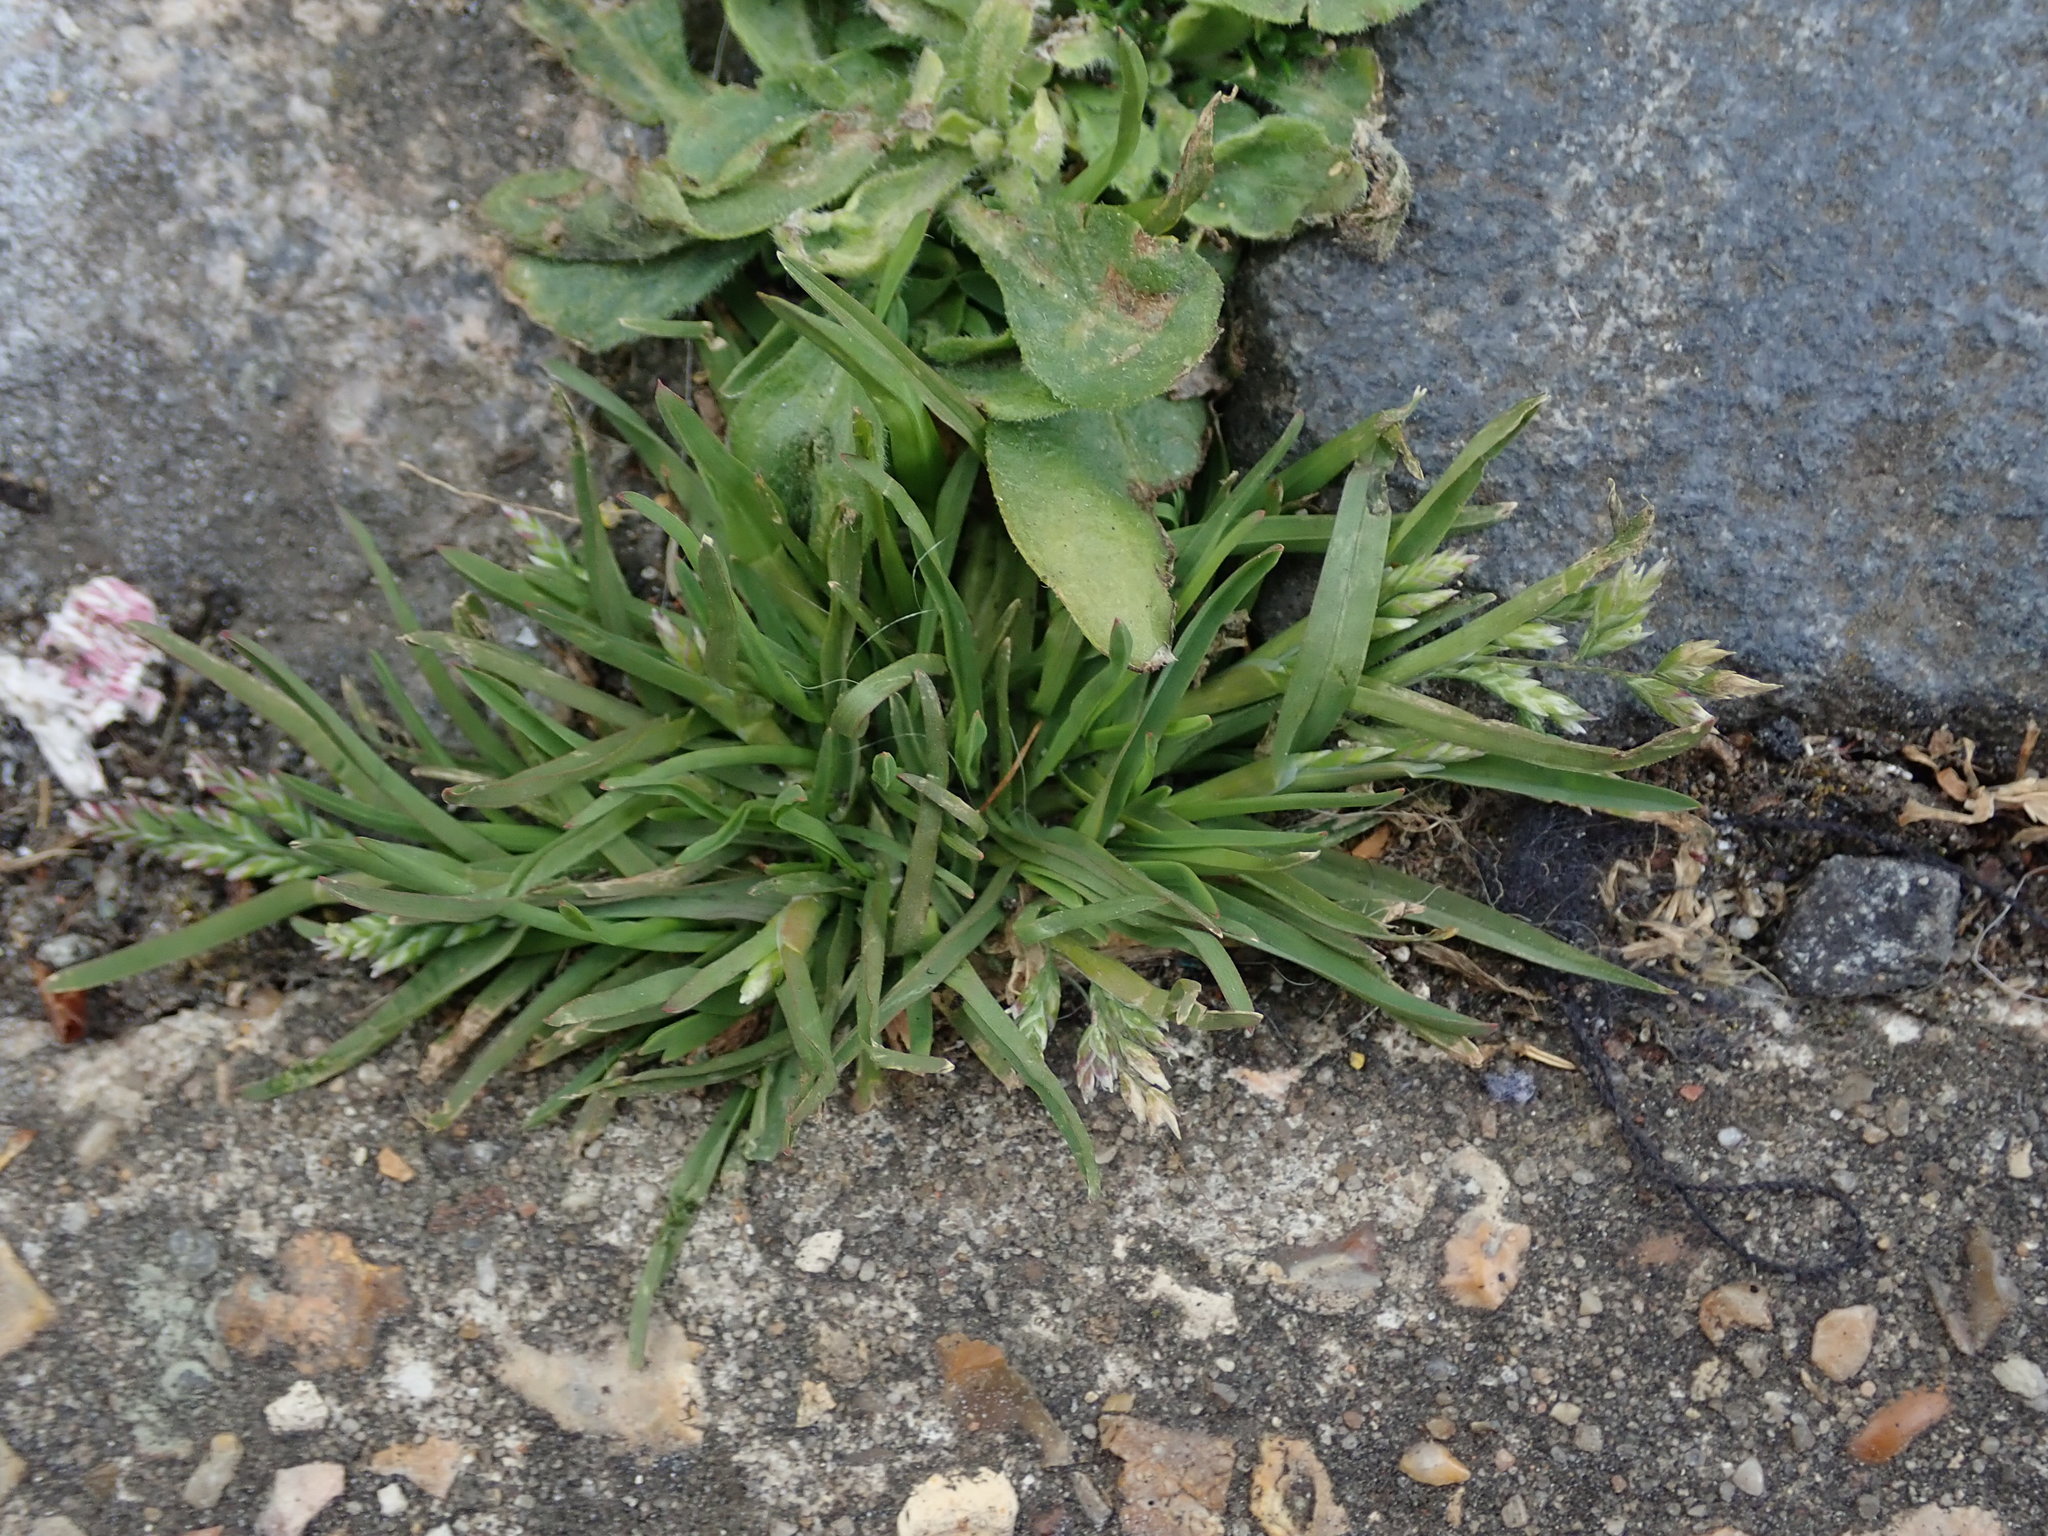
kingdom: Plantae
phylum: Tracheophyta
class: Liliopsida
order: Poales
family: Poaceae
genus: Poa
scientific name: Poa annua
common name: Annual bluegrass
